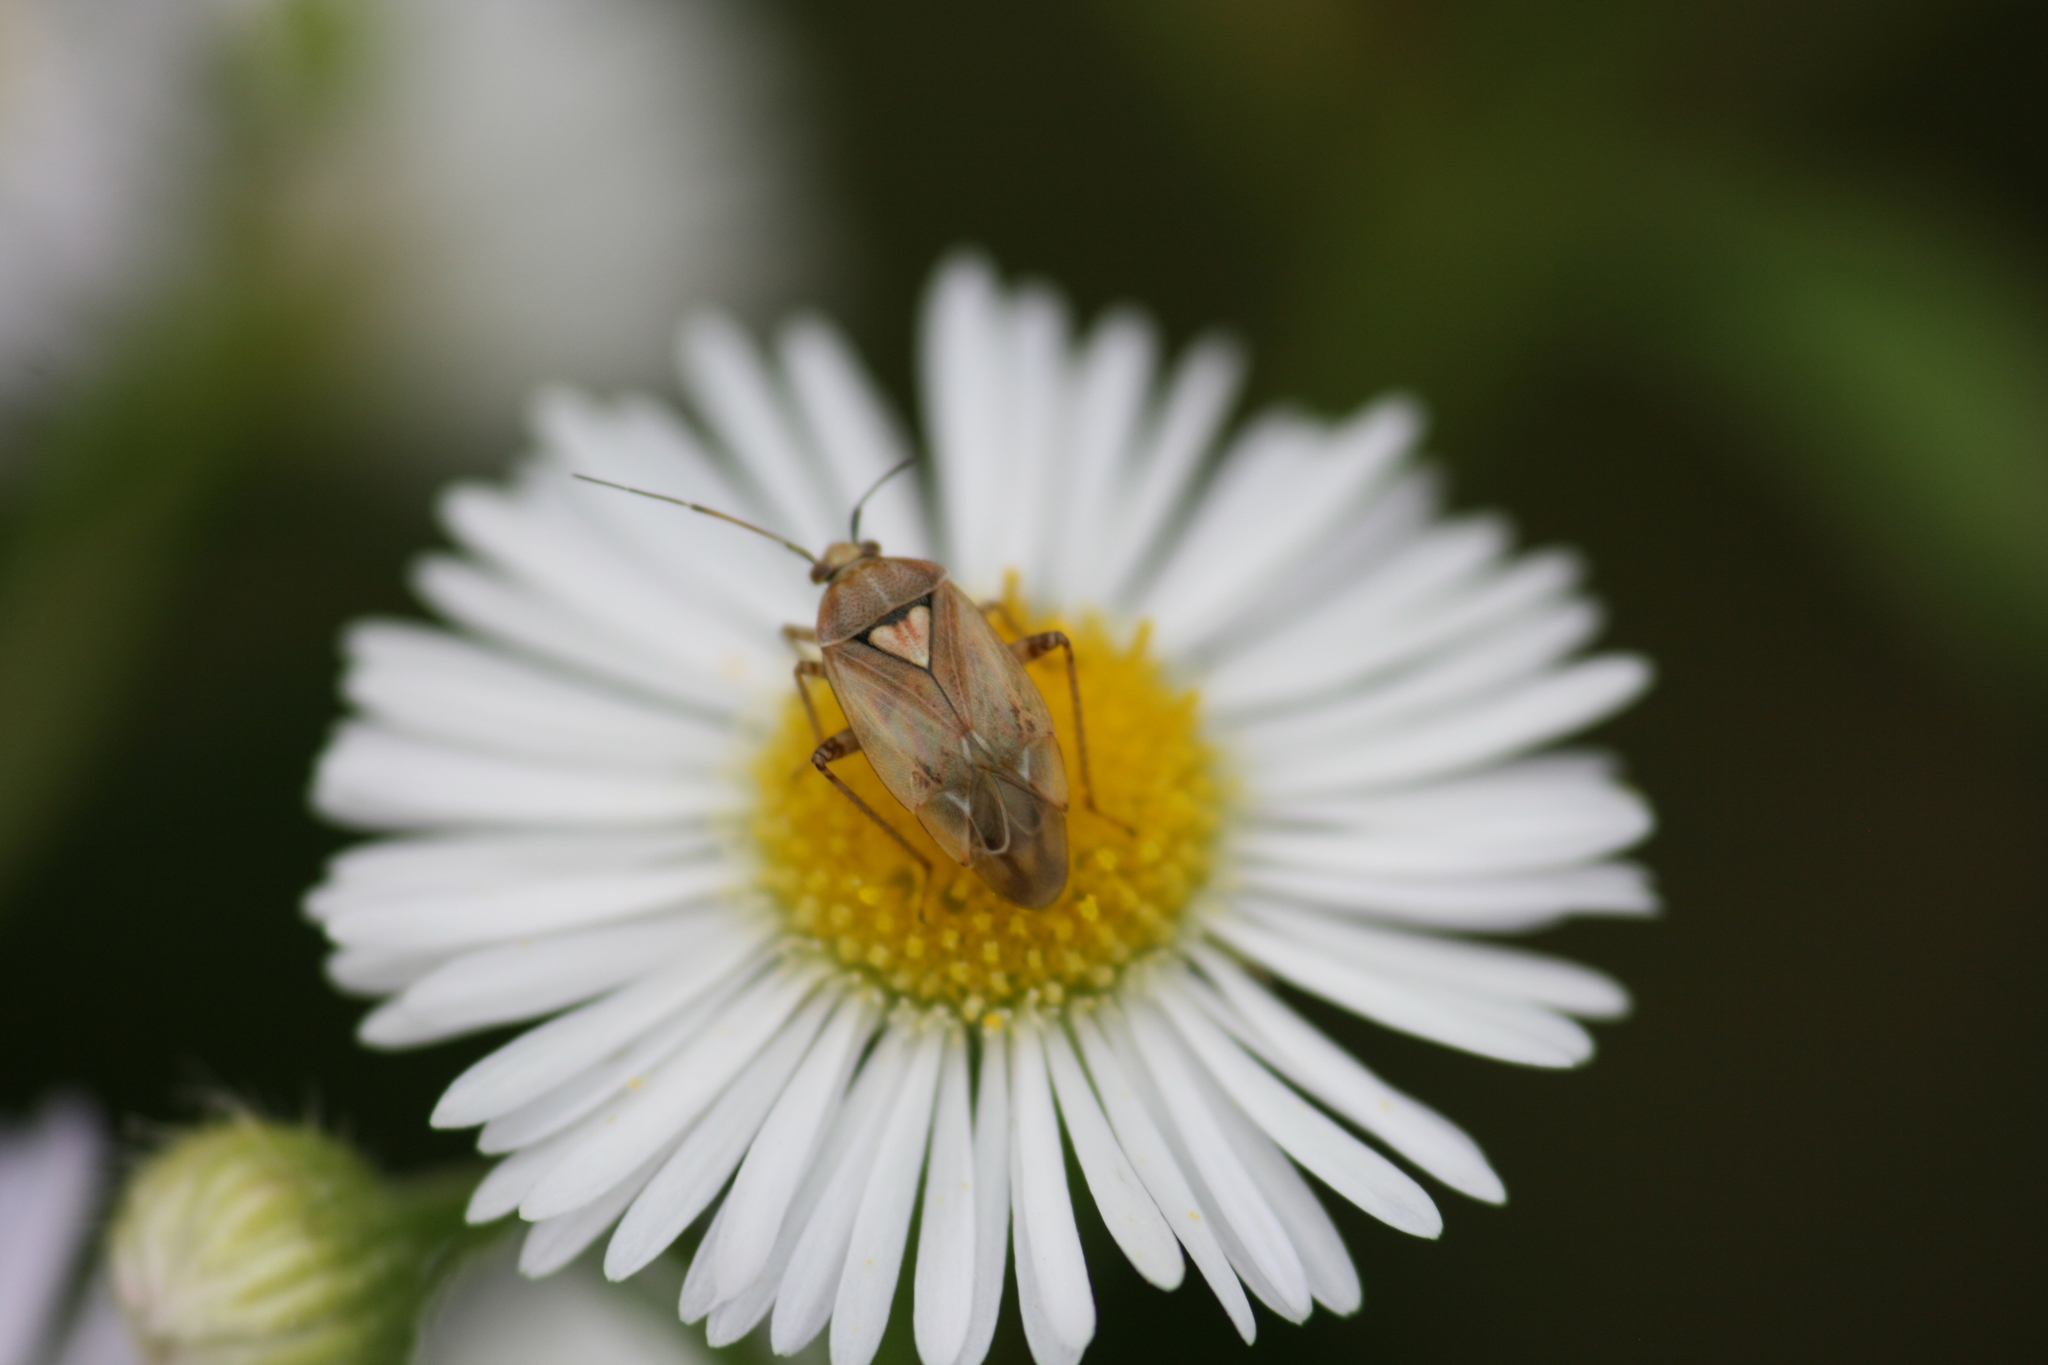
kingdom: Animalia
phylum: Arthropoda
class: Insecta
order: Hemiptera
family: Miridae
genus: Lygus
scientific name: Lygus rugulipennis
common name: European tarnished plant bug
